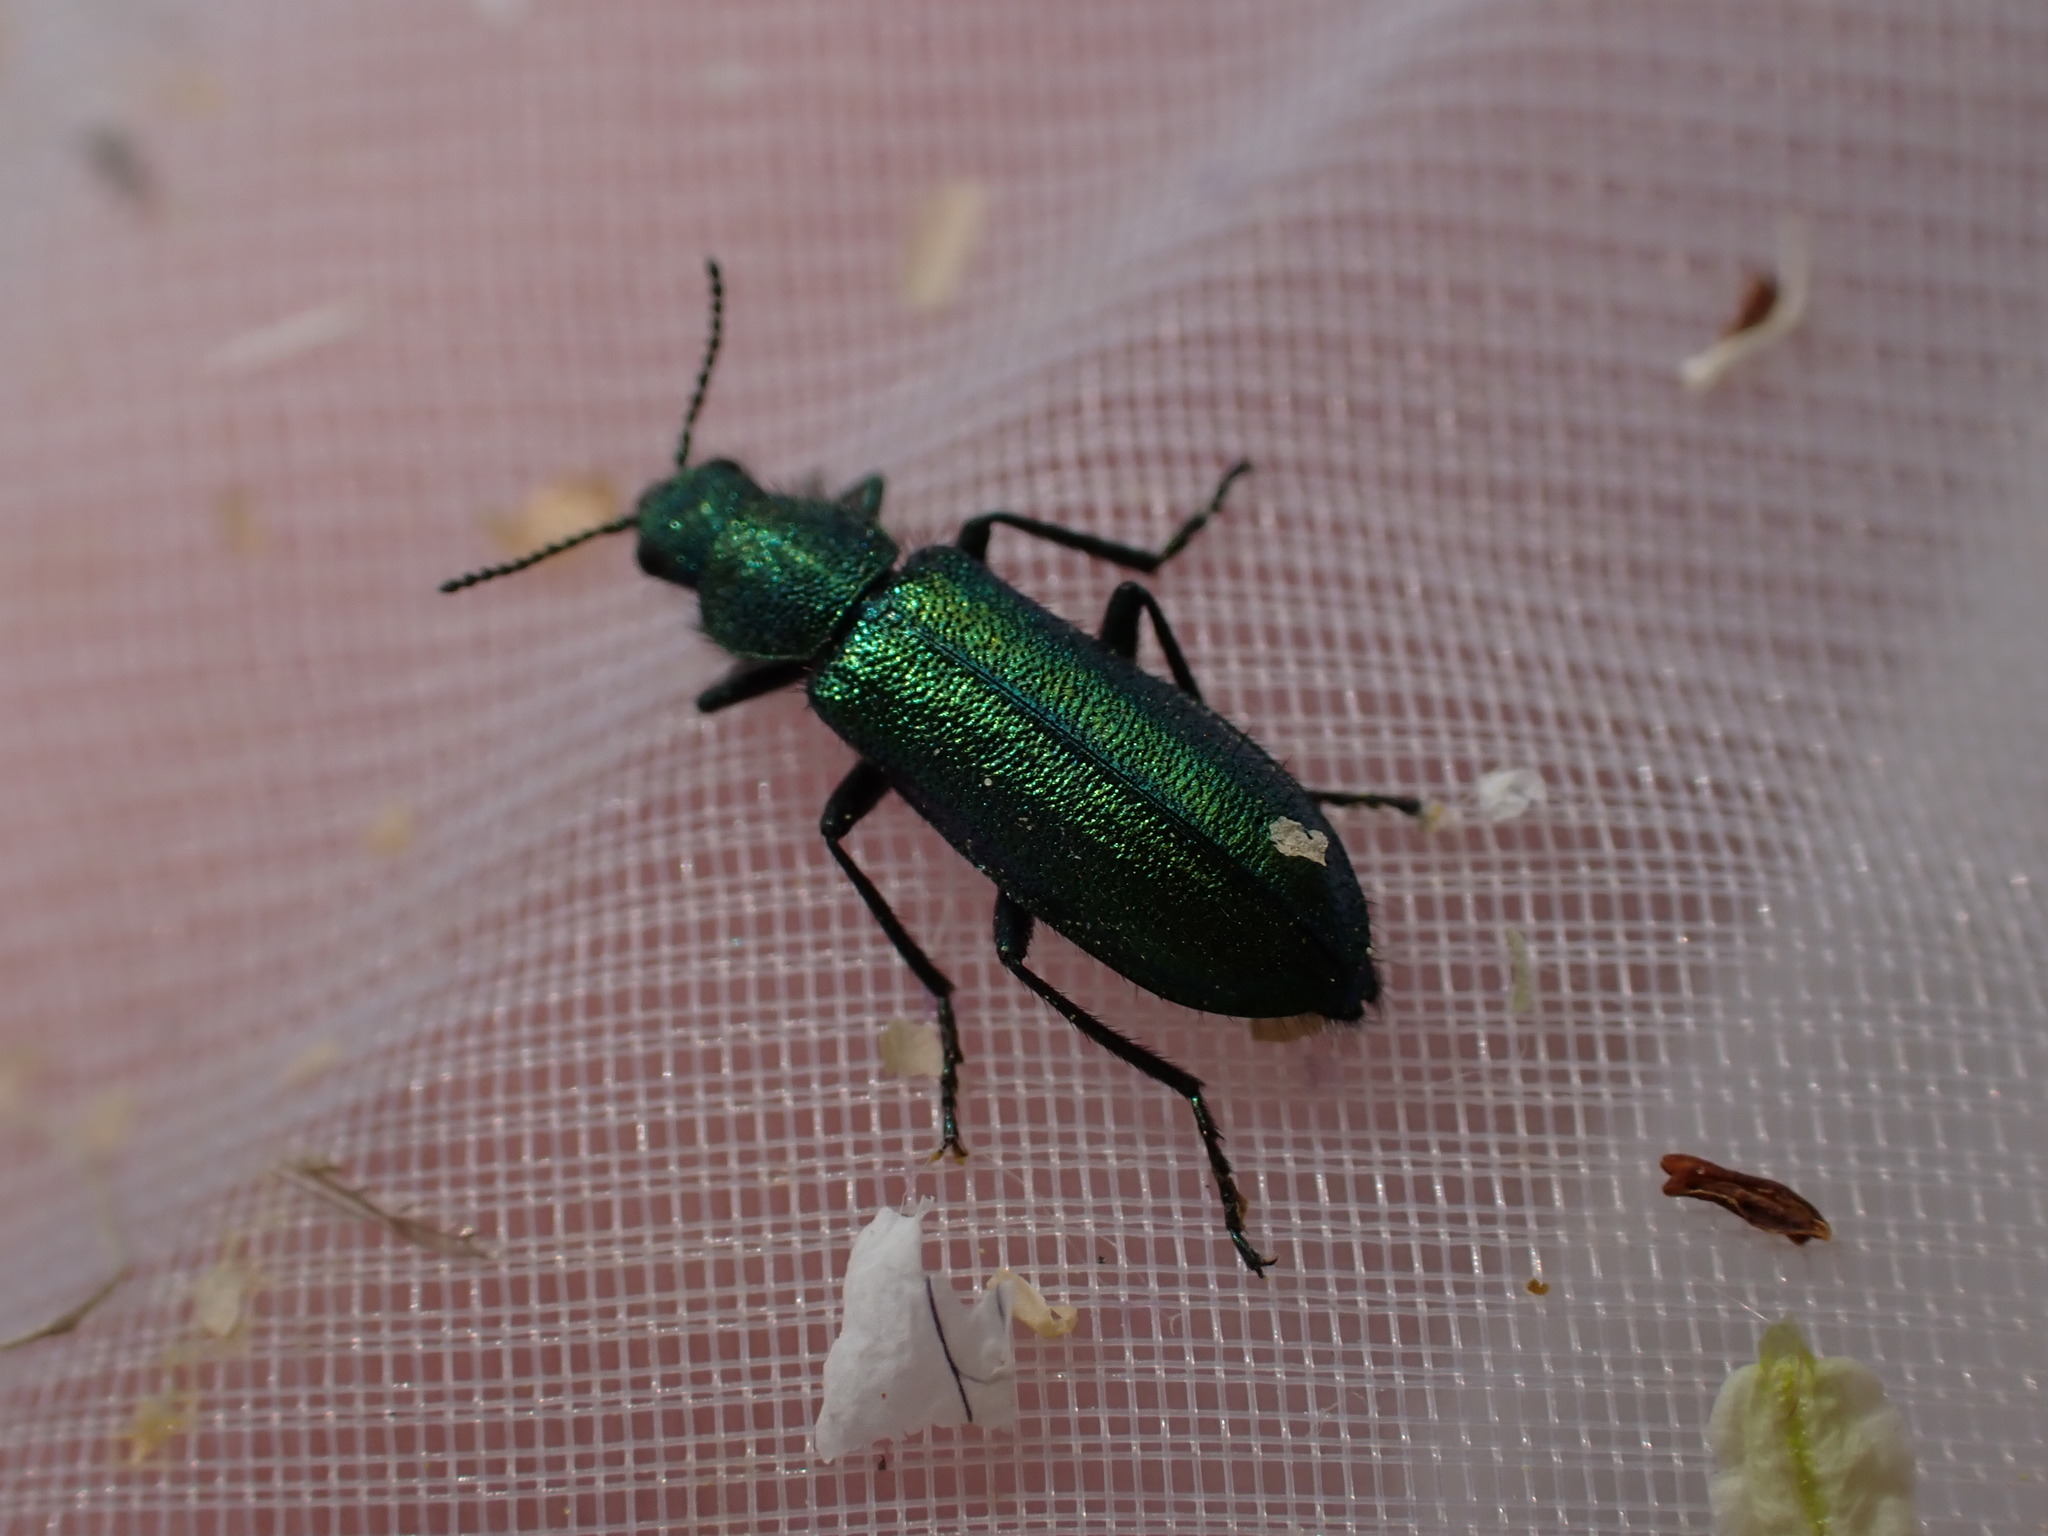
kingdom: Animalia
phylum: Arthropoda
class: Insecta
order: Coleoptera
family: Dasytidae
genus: Psilothrix
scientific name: Psilothrix viridicoerulea
